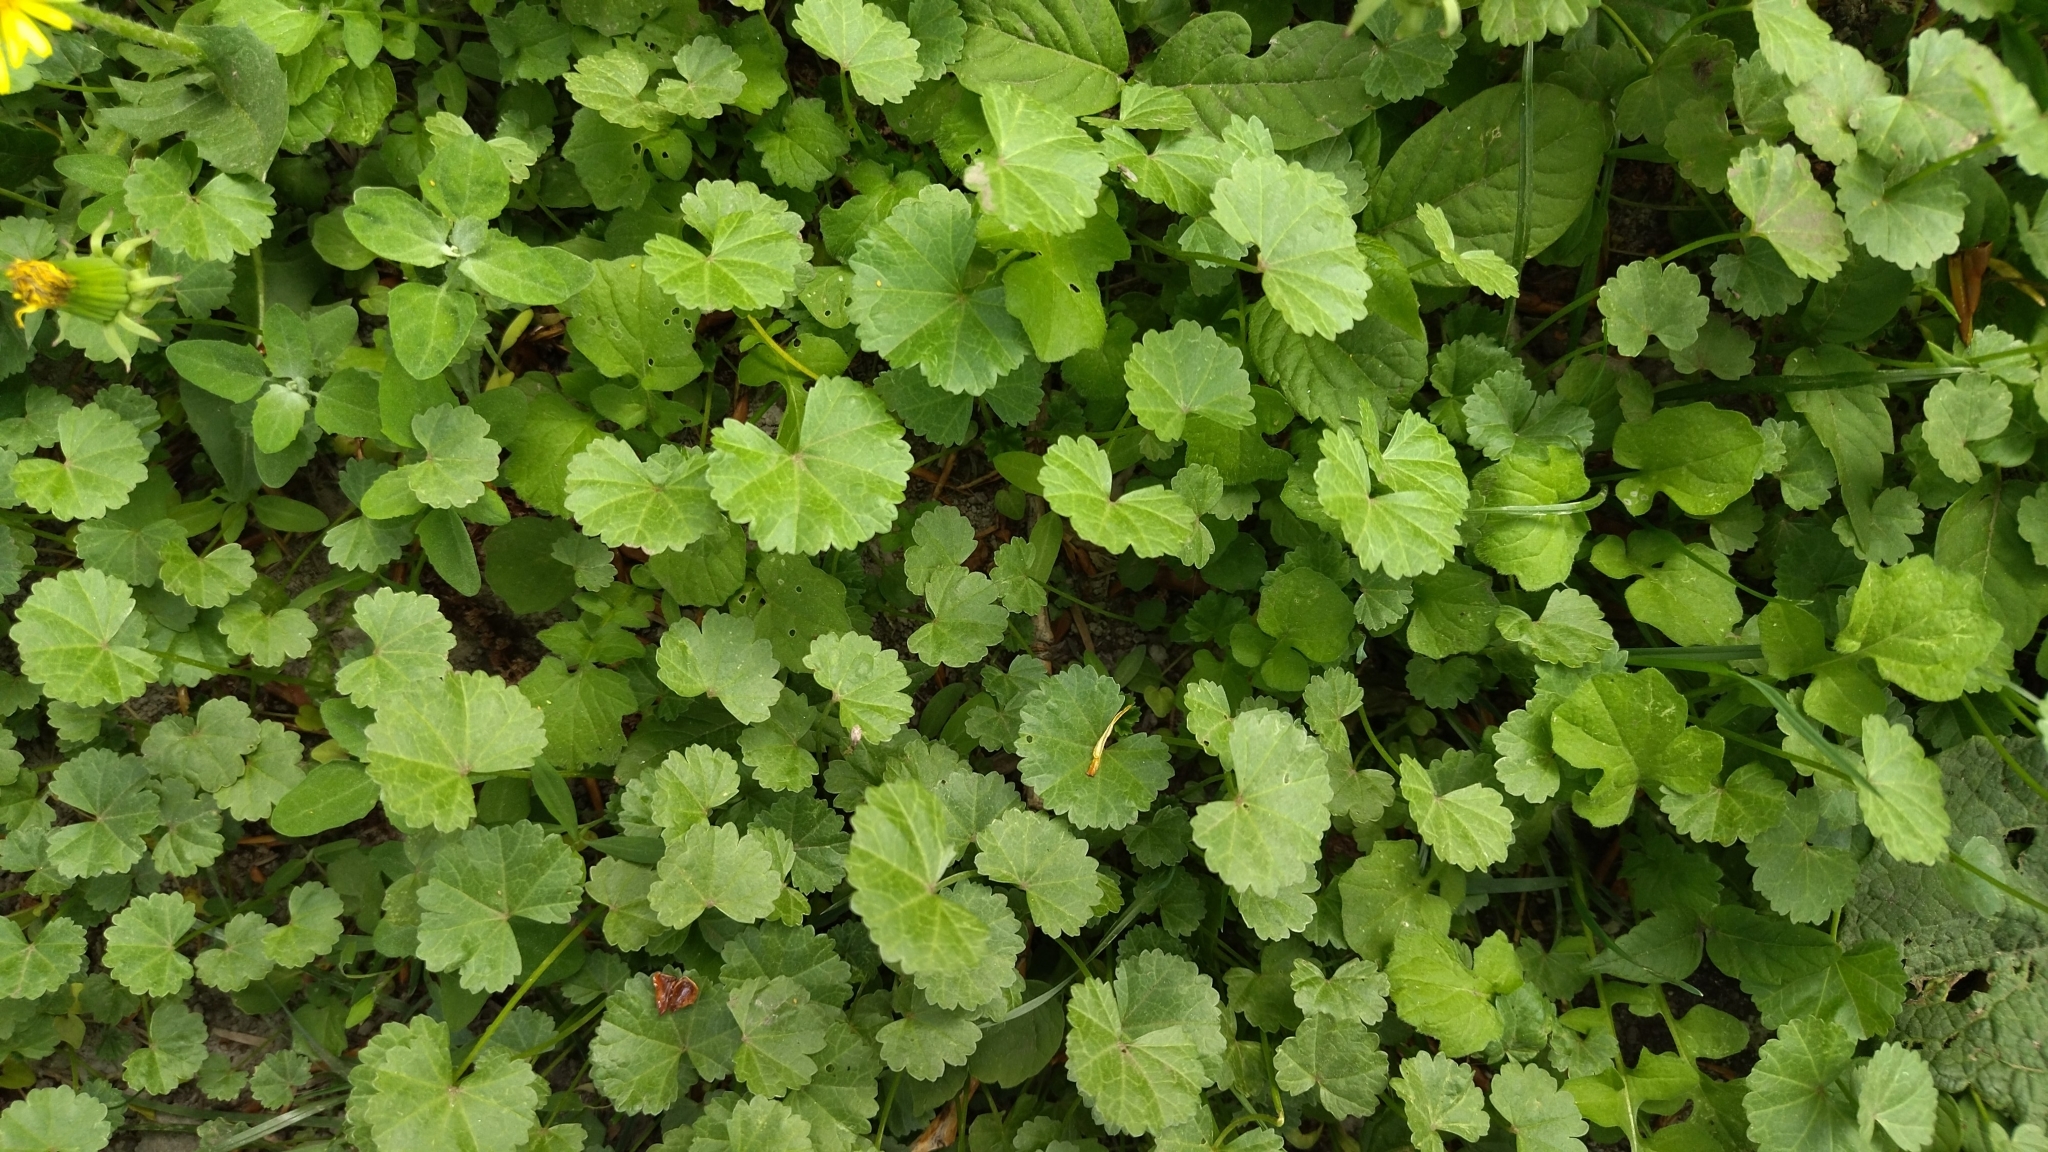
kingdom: Plantae
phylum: Tracheophyta
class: Magnoliopsida
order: Malvales
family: Malvaceae
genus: Malva
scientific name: Malva pusilla
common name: Small mallow
